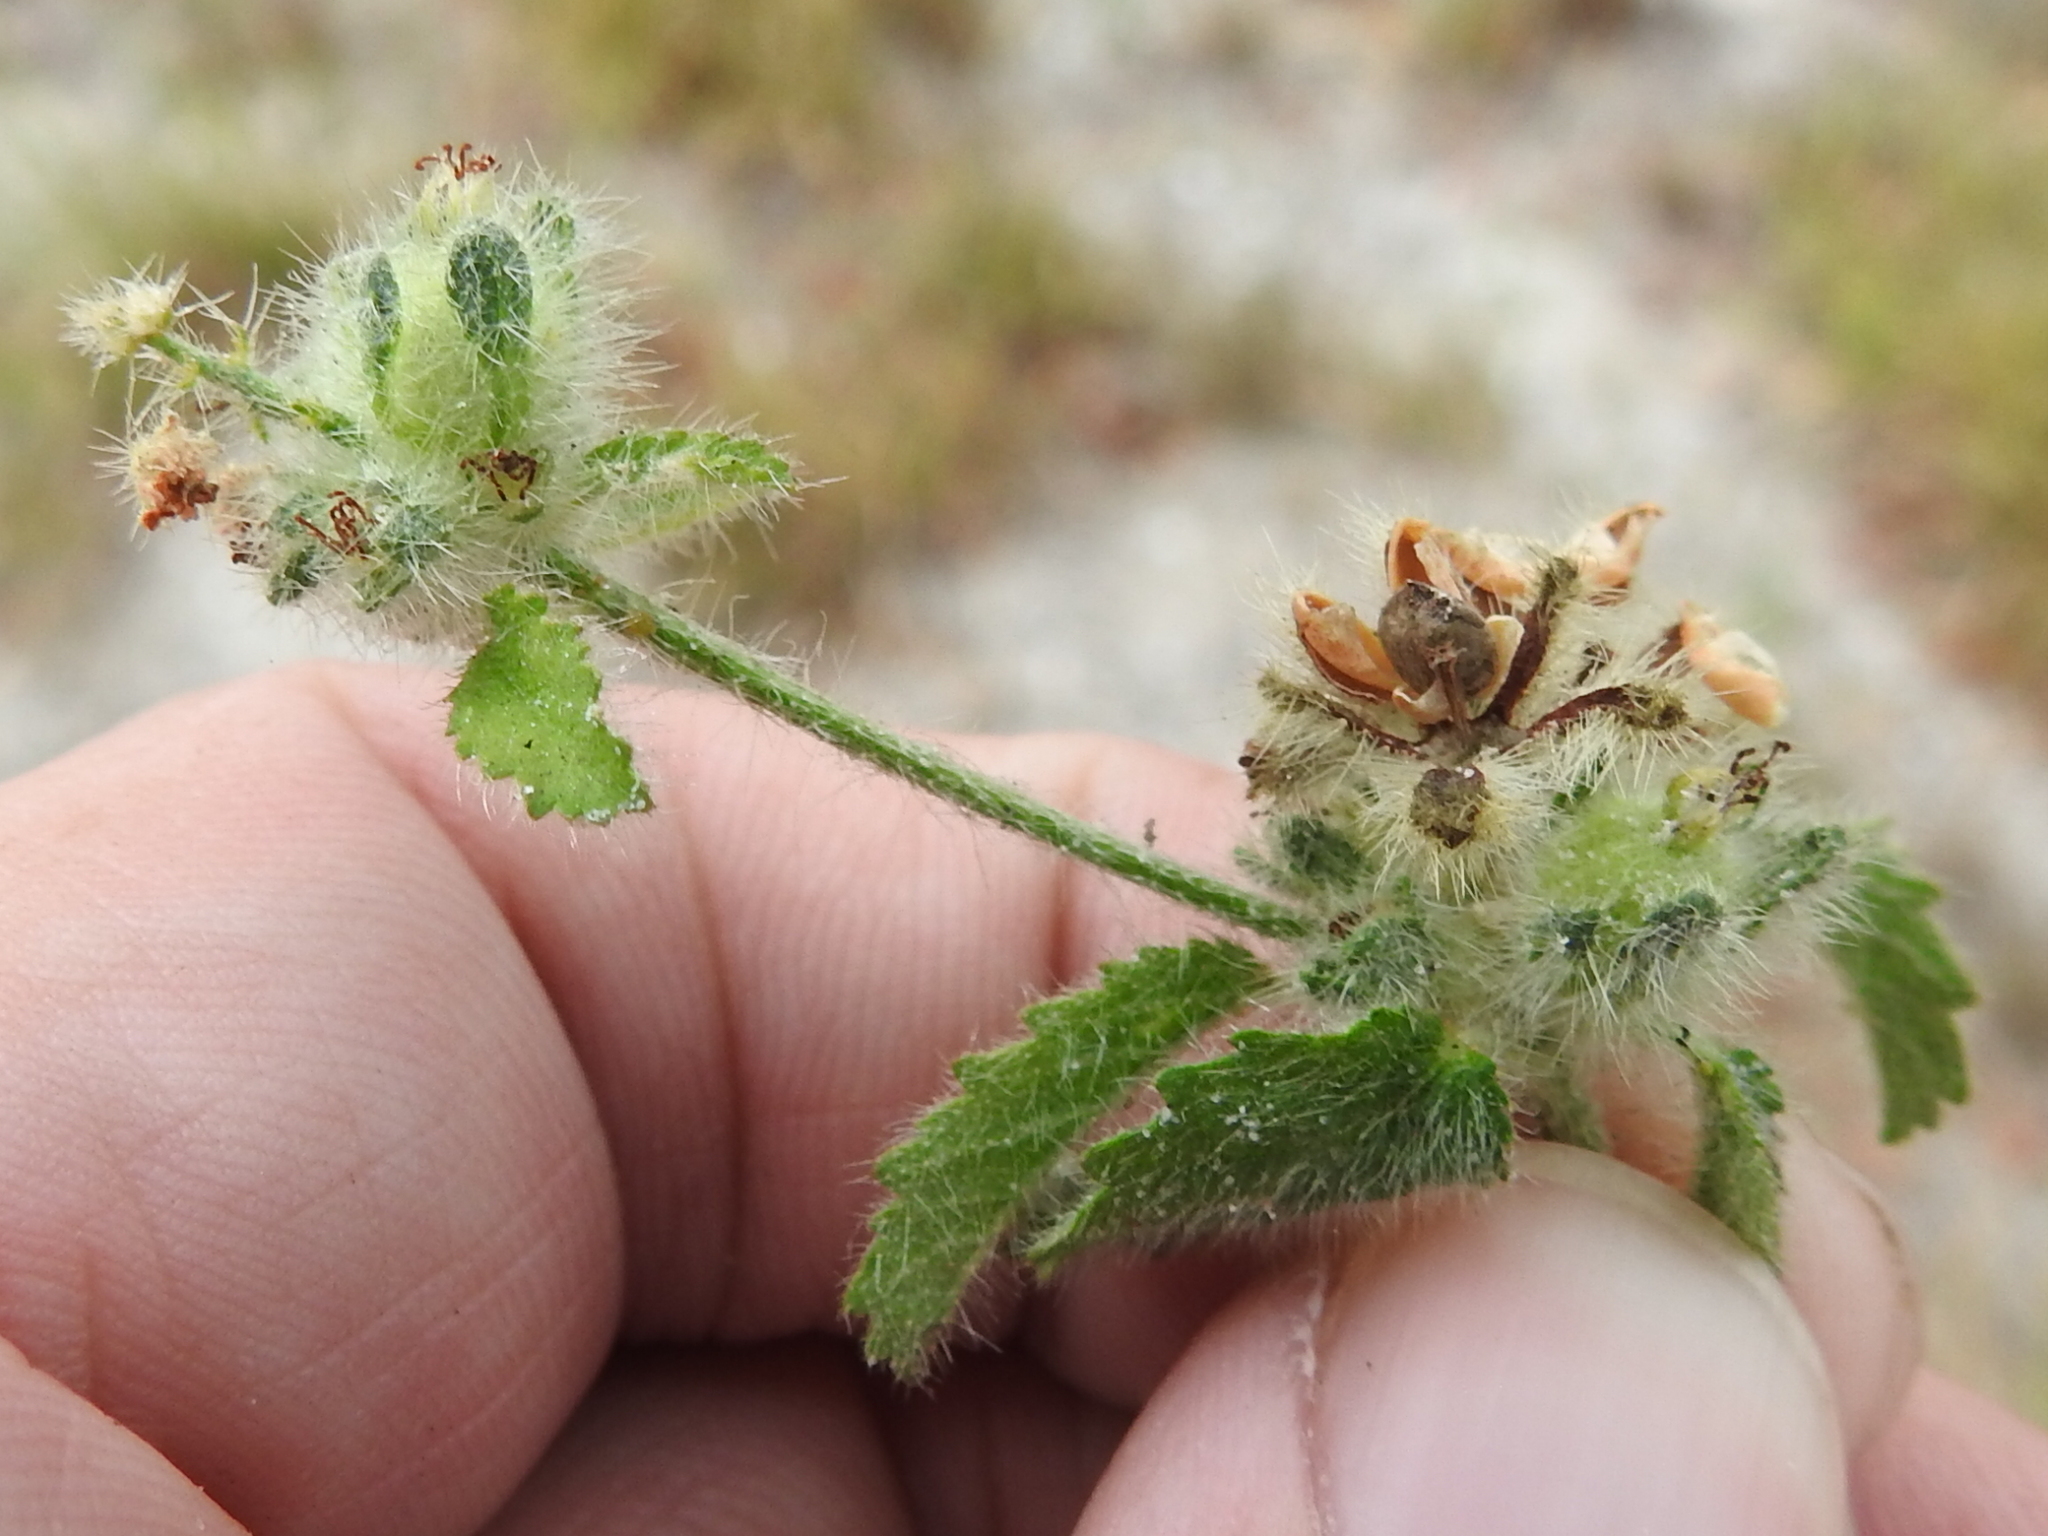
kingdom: Plantae
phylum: Tracheophyta
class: Magnoliopsida
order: Malpighiales
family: Euphorbiaceae
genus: Croton
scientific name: Croton glandulosus
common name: Tropic croton
